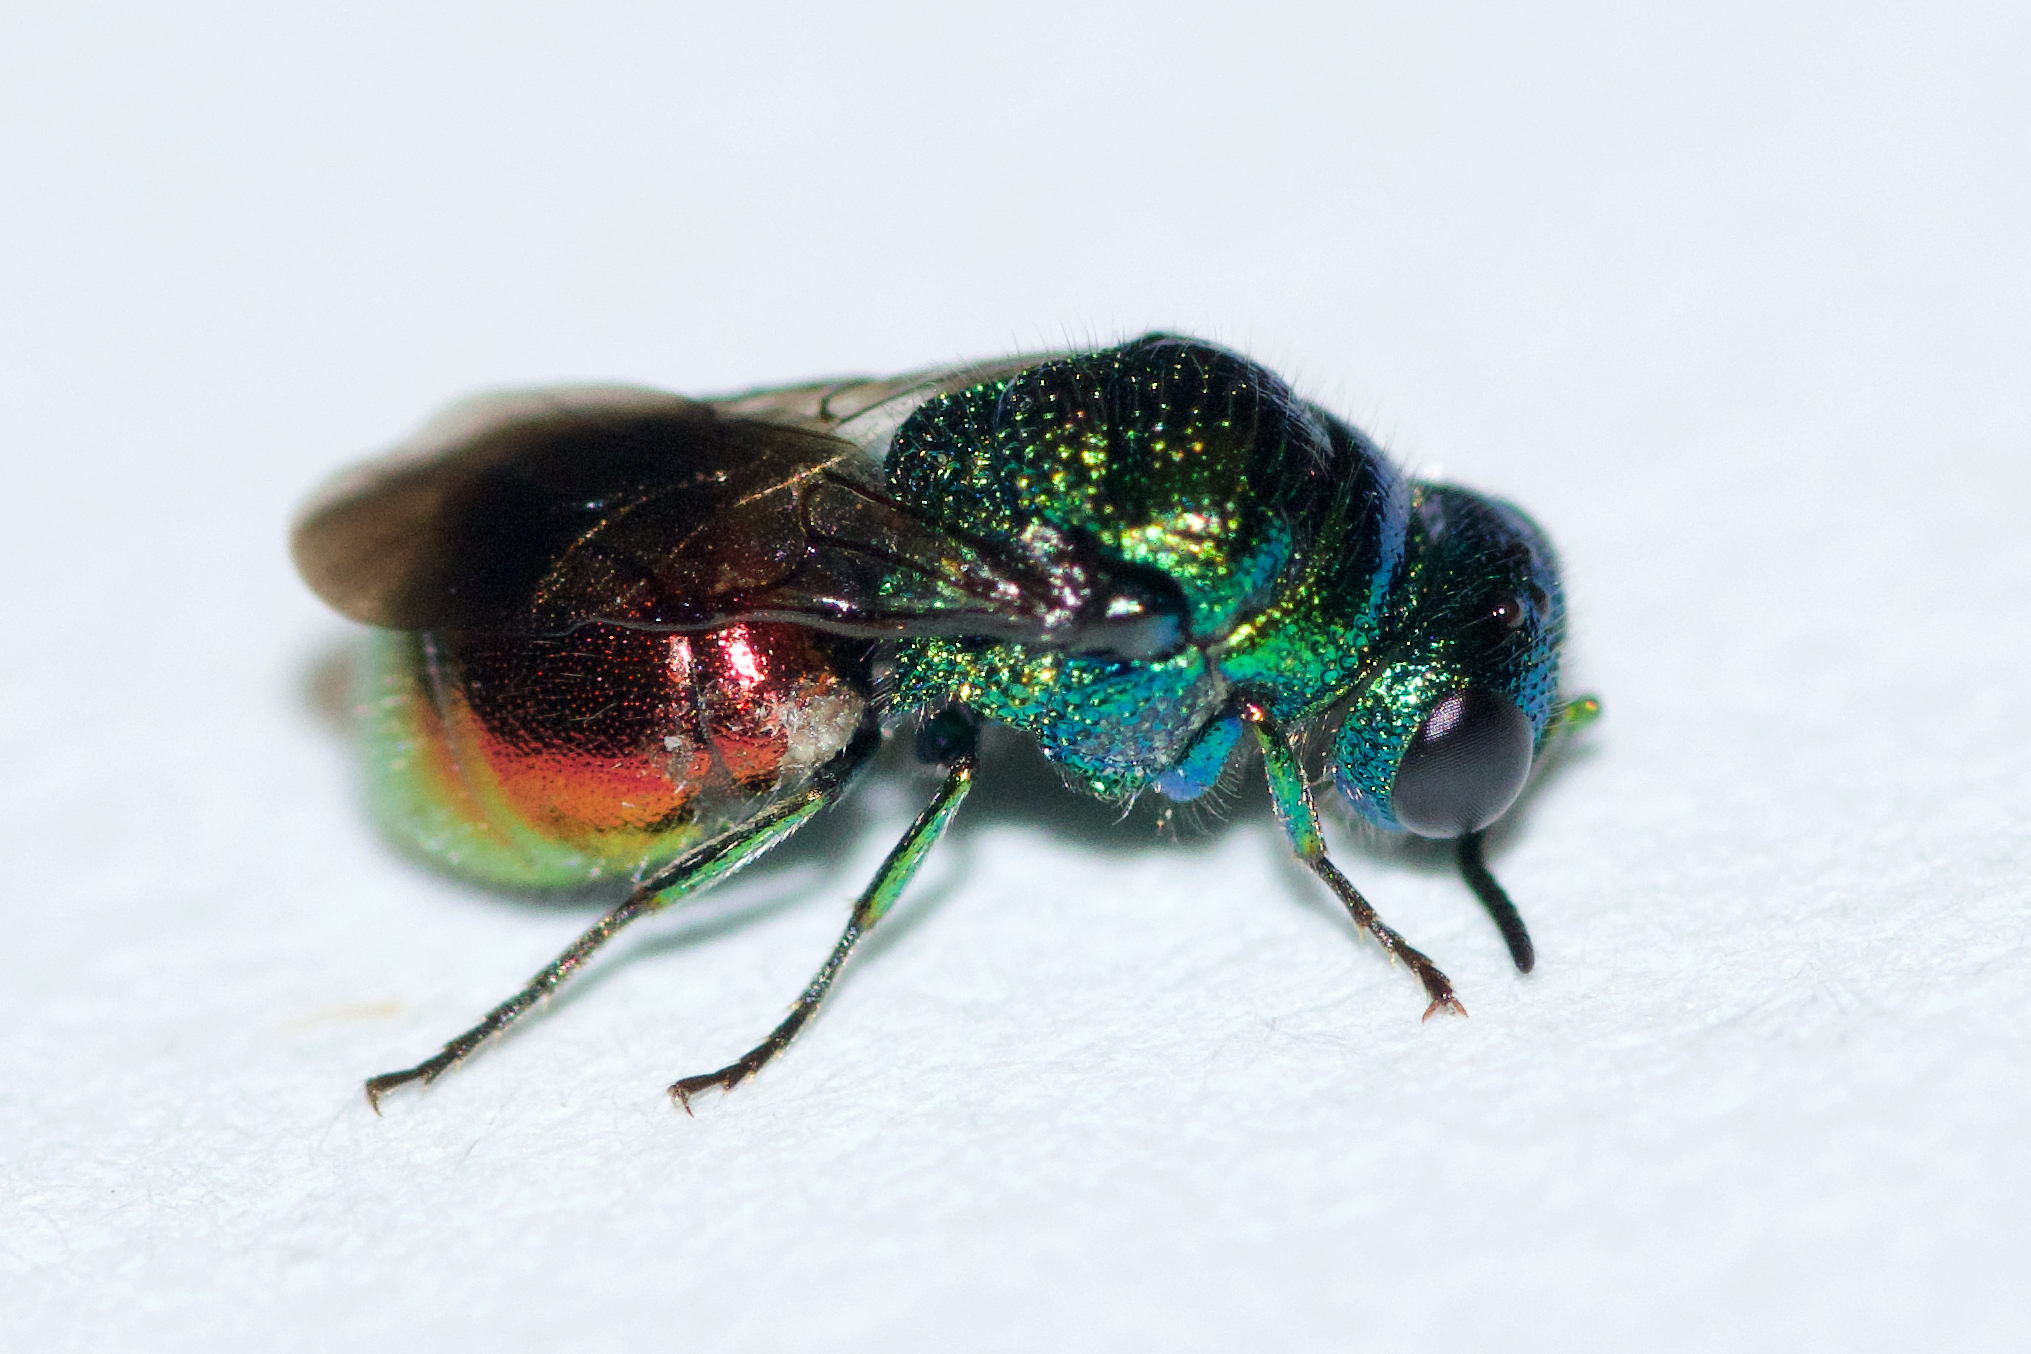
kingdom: Animalia
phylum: Arthropoda
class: Insecta
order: Hymenoptera
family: Chrysididae
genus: Pseudomalus
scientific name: Pseudomalus auratus
